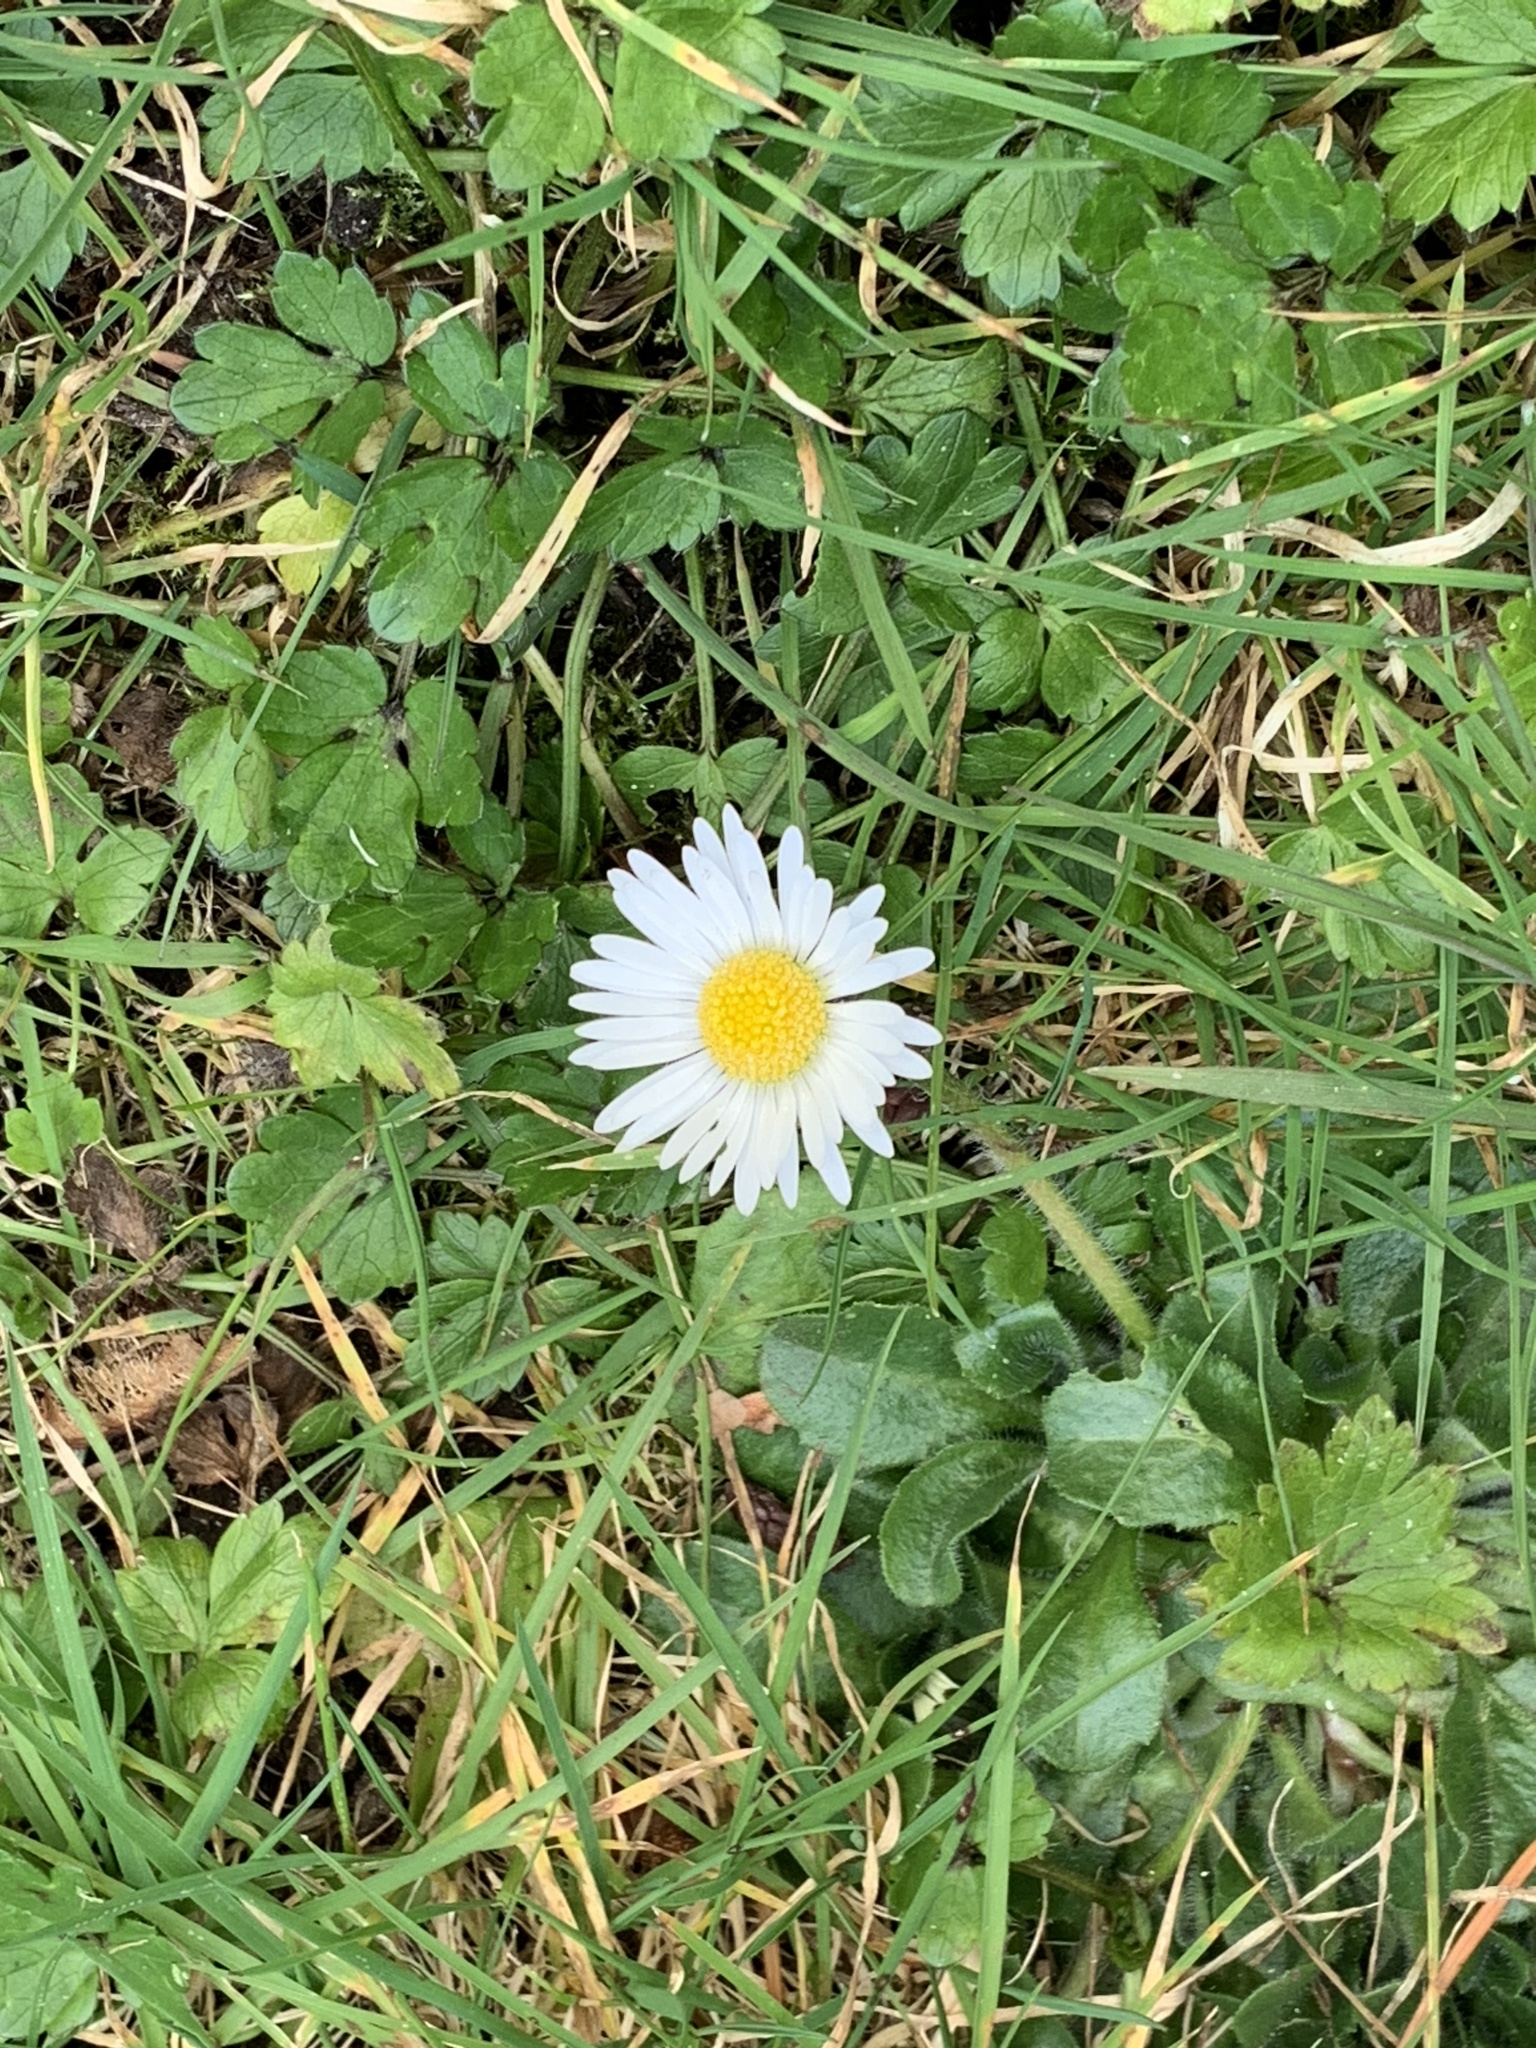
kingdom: Plantae
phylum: Tracheophyta
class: Magnoliopsida
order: Asterales
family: Asteraceae
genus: Bellis
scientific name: Bellis perennis
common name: Lawndaisy
